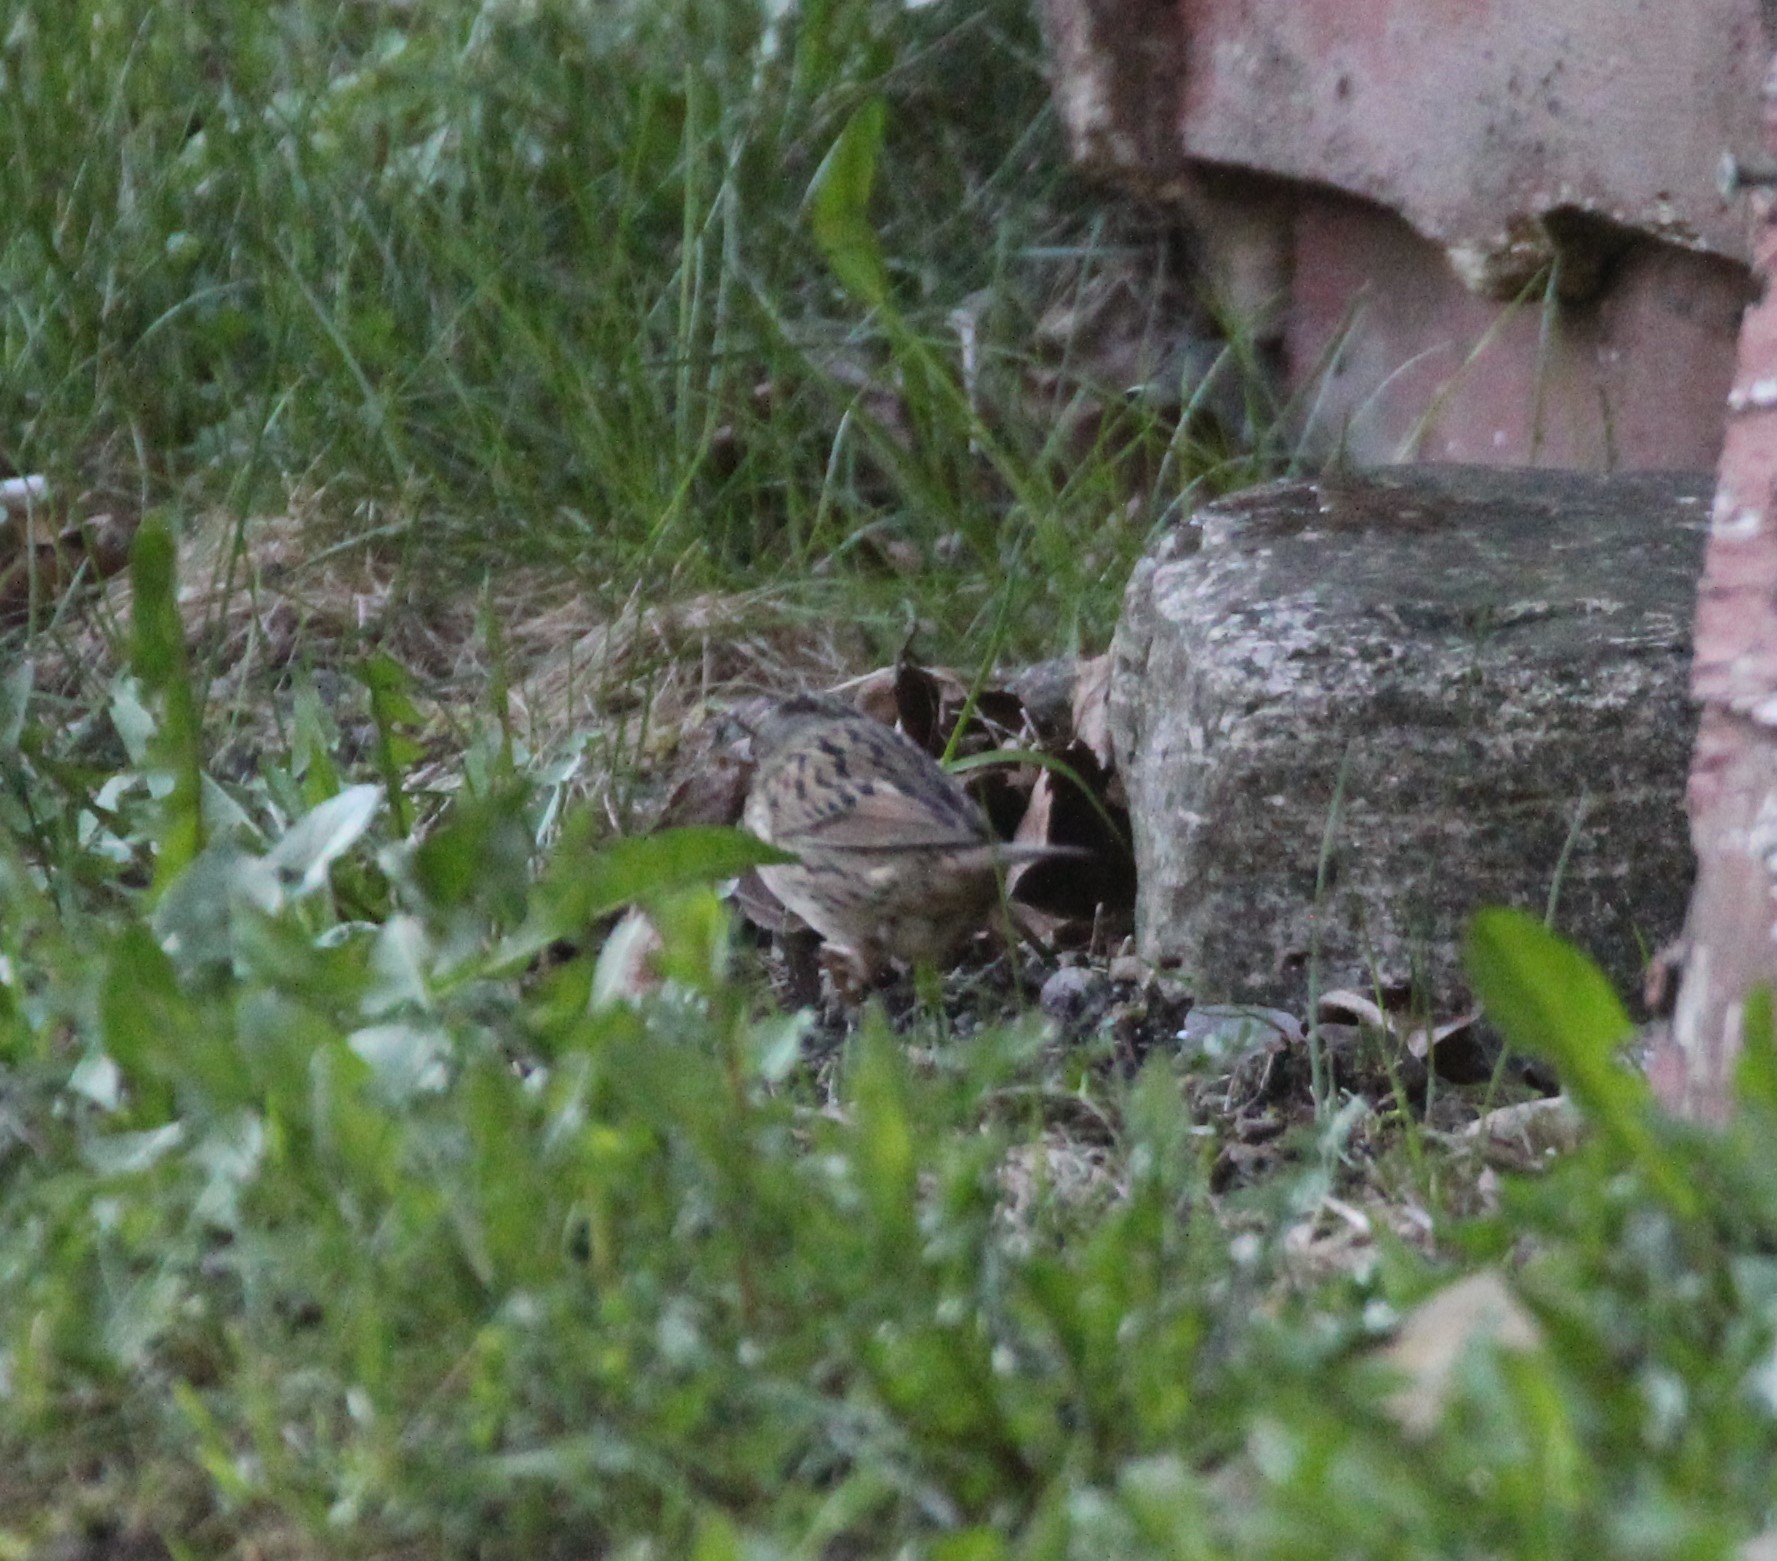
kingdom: Animalia
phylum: Chordata
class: Aves
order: Passeriformes
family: Passerellidae
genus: Melospiza
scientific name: Melospiza lincolnii
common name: Lincoln's sparrow
